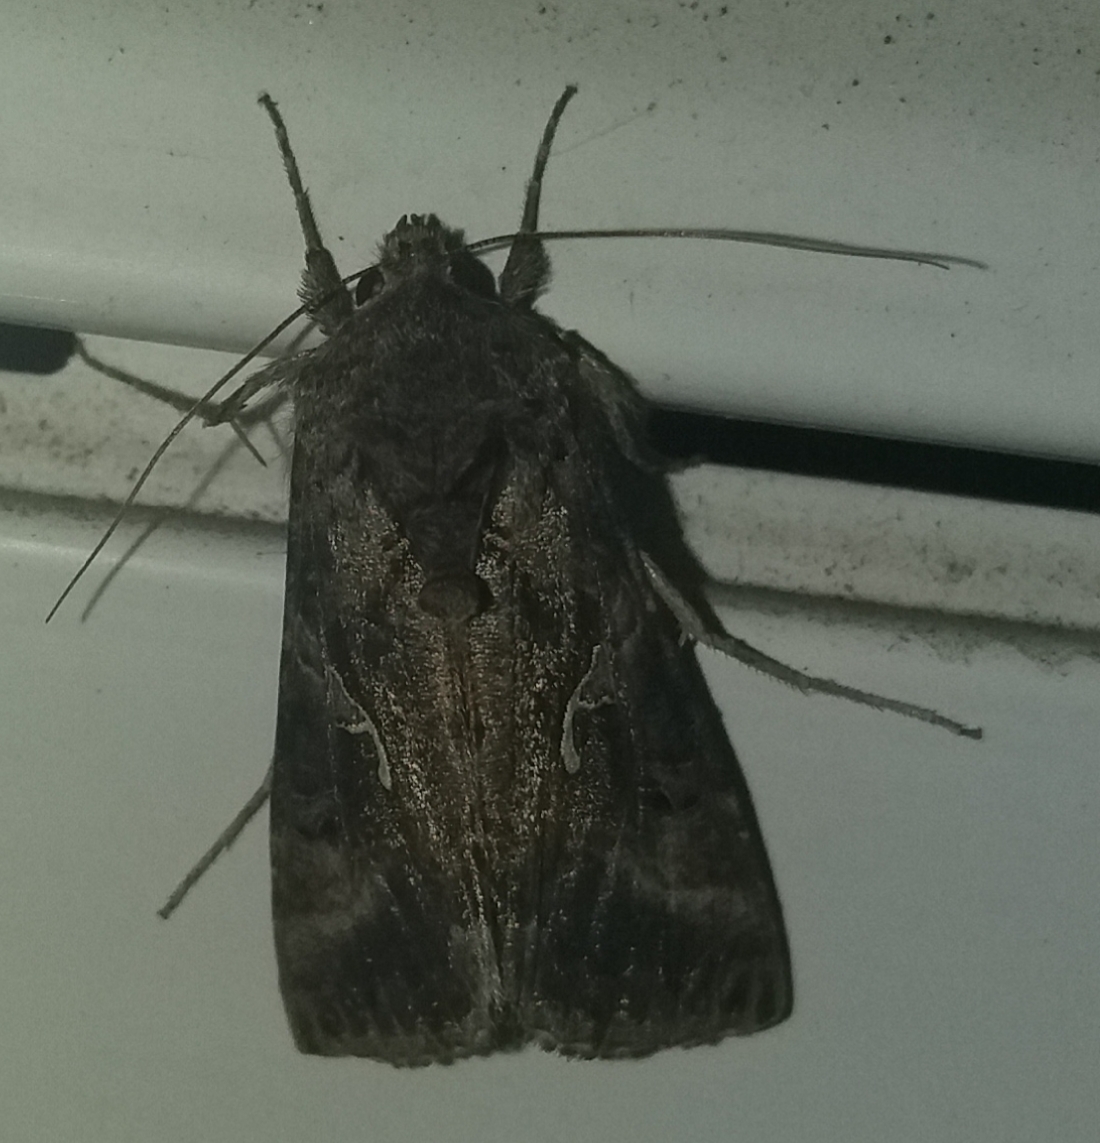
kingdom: Animalia
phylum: Arthropoda
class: Insecta
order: Lepidoptera
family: Noctuidae
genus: Autographa
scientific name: Autographa gamma
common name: Silver y
